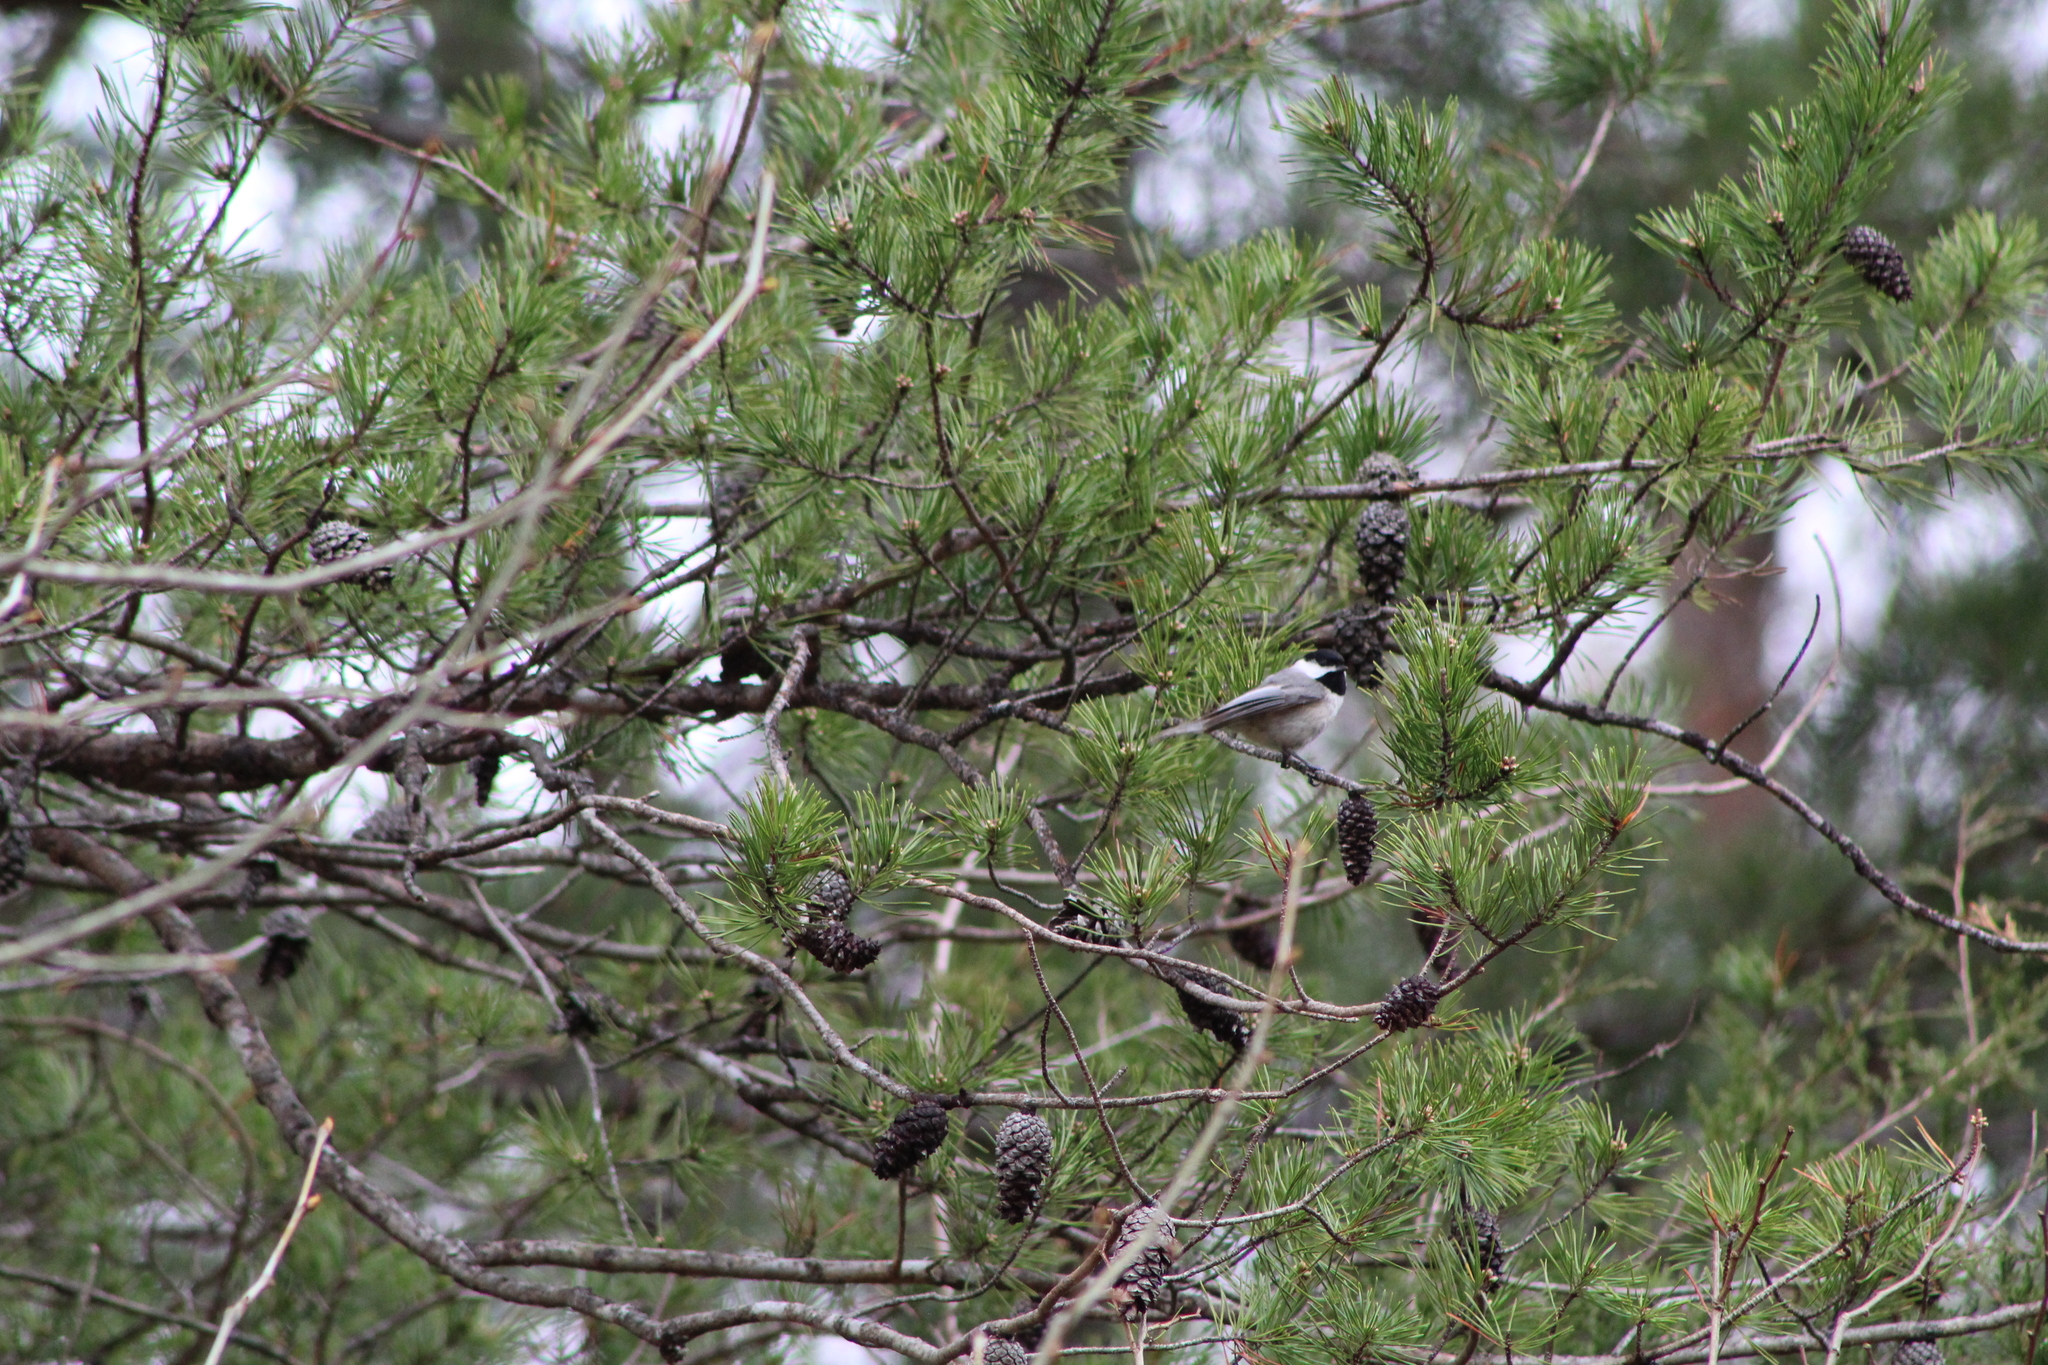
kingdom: Animalia
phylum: Chordata
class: Aves
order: Passeriformes
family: Paridae
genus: Poecile
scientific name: Poecile carolinensis
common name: Carolina chickadee
